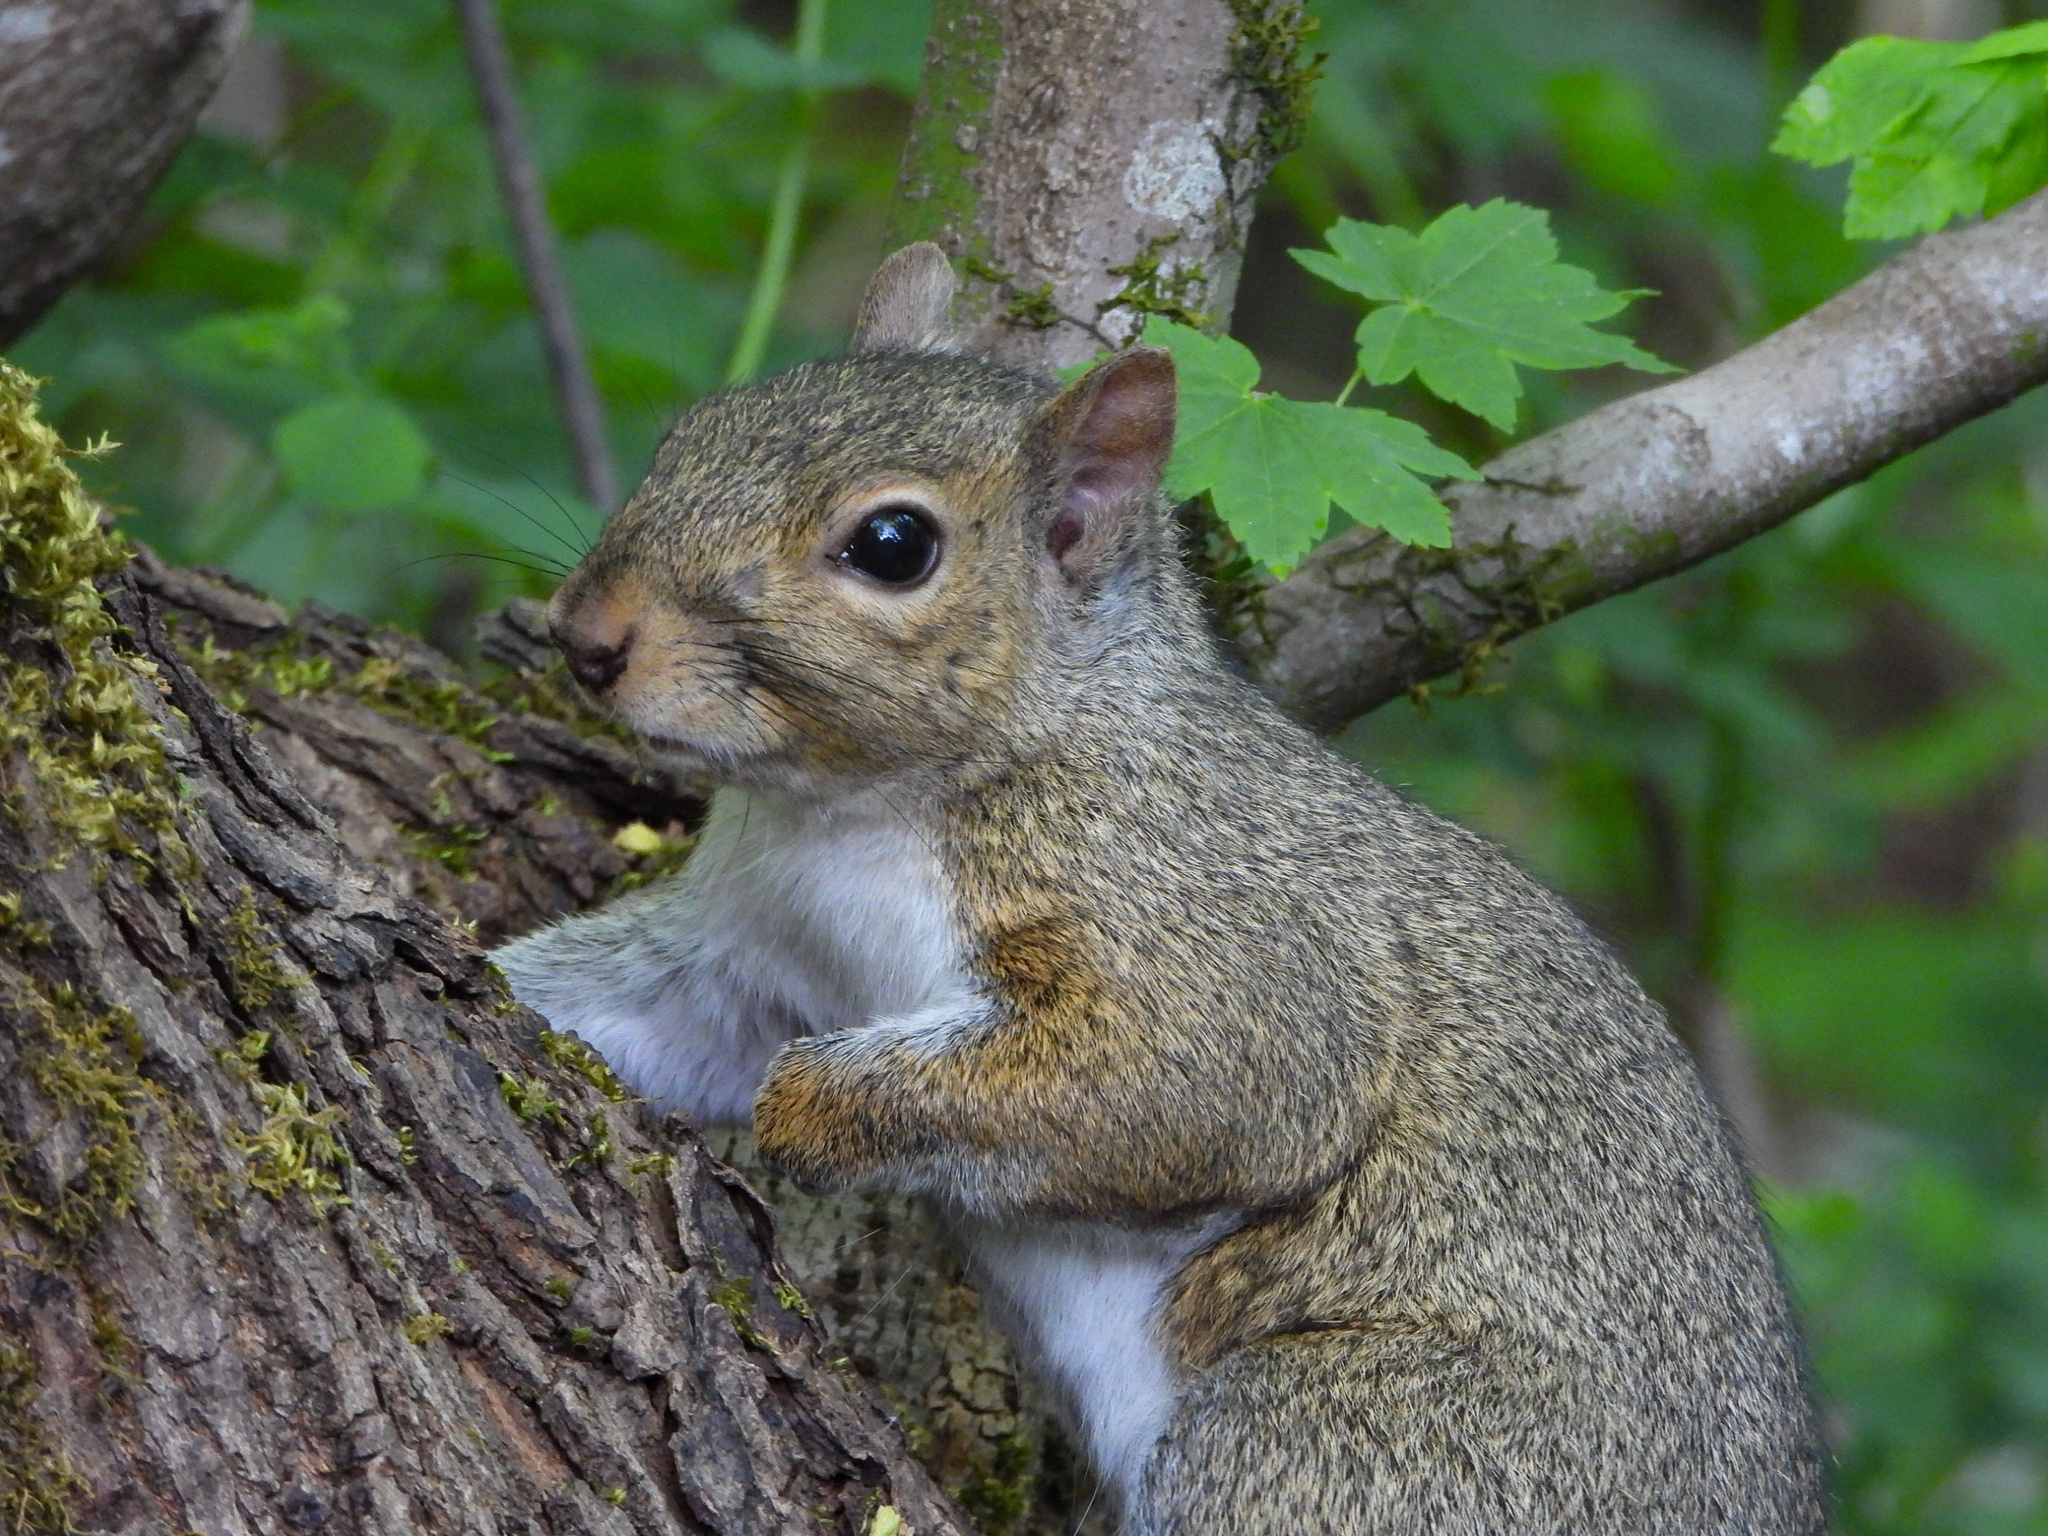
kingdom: Animalia
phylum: Chordata
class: Mammalia
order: Rodentia
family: Sciuridae
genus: Sciurus
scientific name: Sciurus carolinensis
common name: Eastern gray squirrel
